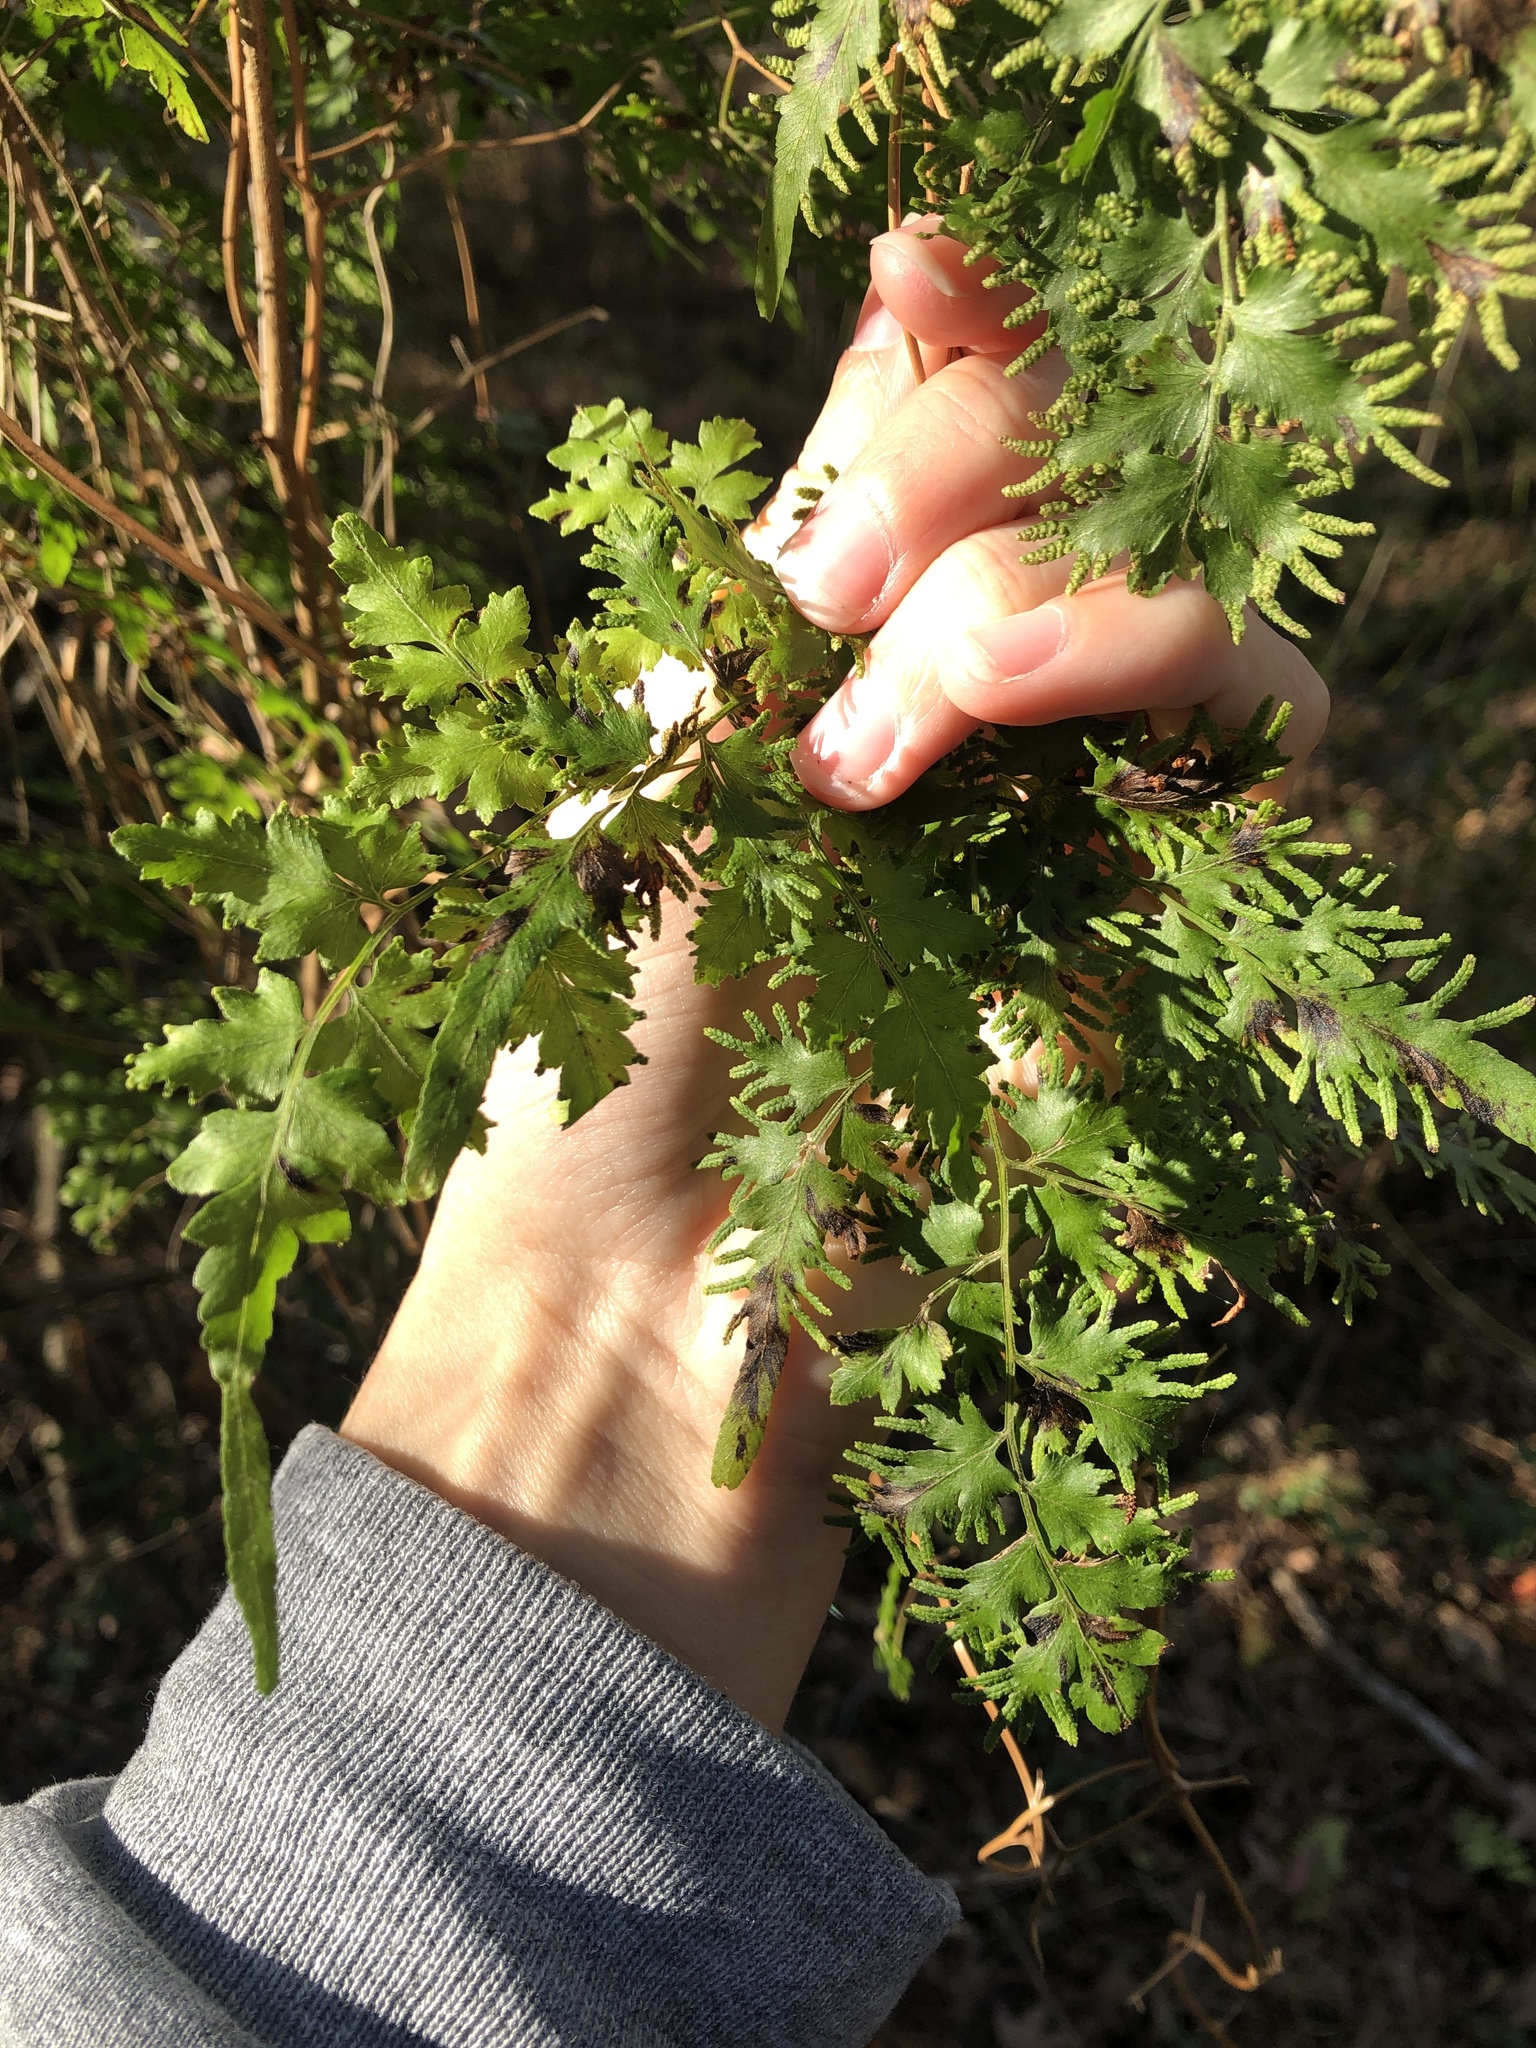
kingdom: Plantae
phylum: Tracheophyta
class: Polypodiopsida
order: Schizaeales
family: Lygodiaceae
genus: Lygodium
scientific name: Lygodium japonicum
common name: Japanese climbing fern
